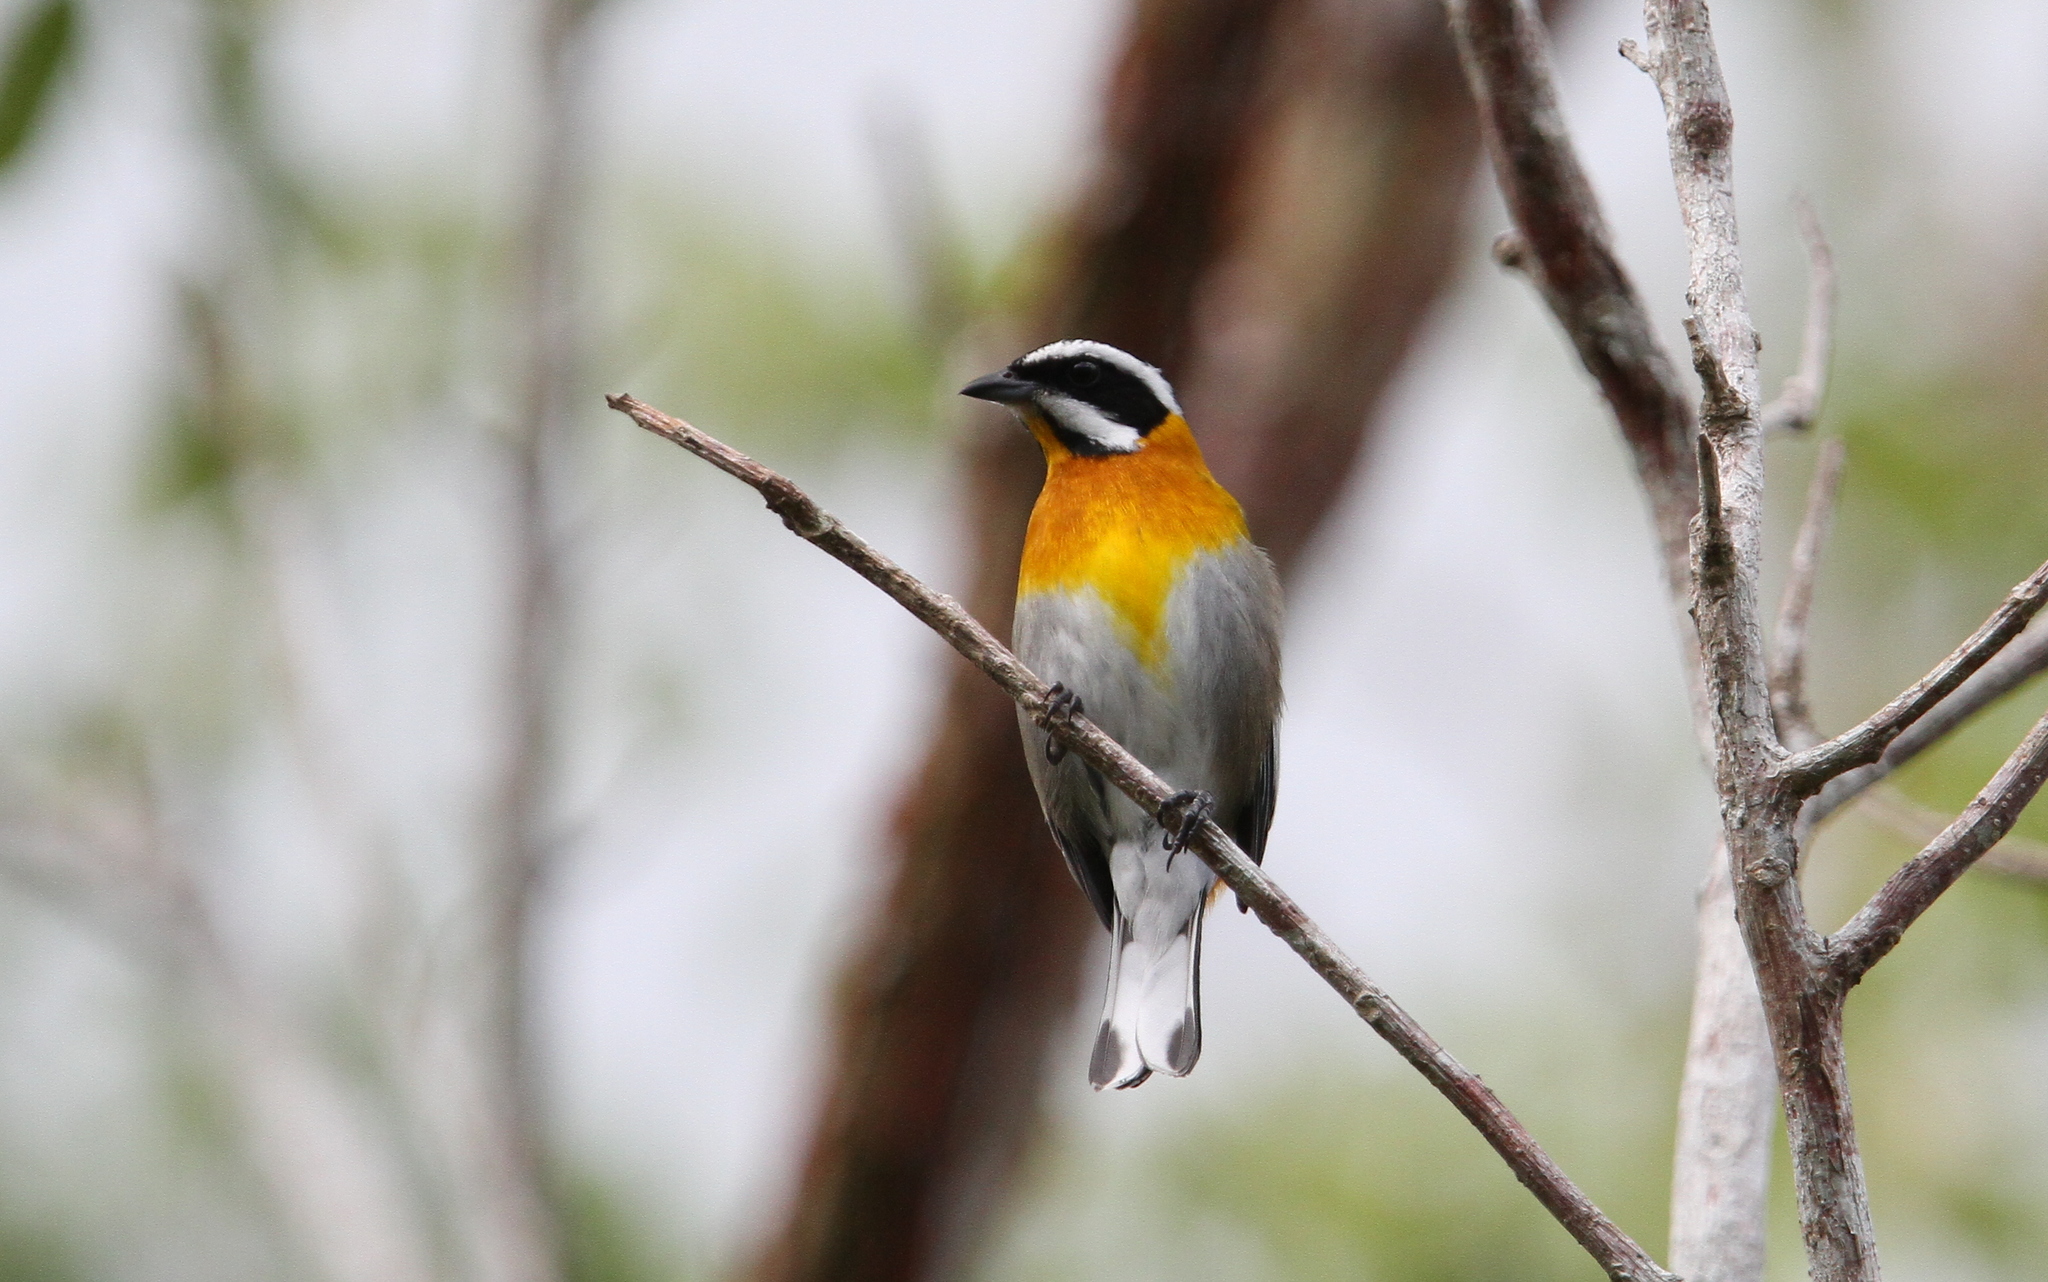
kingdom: Animalia
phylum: Chordata
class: Aves
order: Passeriformes
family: Spindalidae
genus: Spindalis
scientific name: Spindalis zena
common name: Western spindalis
